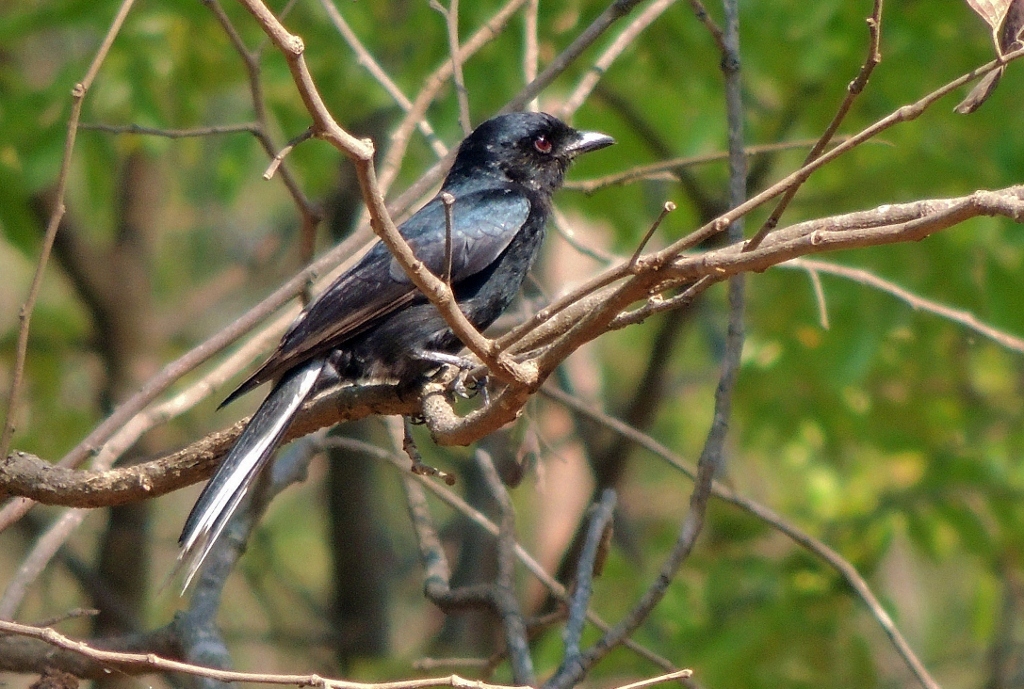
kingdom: Animalia
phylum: Chordata
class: Aves
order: Passeriformes
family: Dicruridae
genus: Dicrurus
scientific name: Dicrurus adsimilis
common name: Fork-tailed drongo
